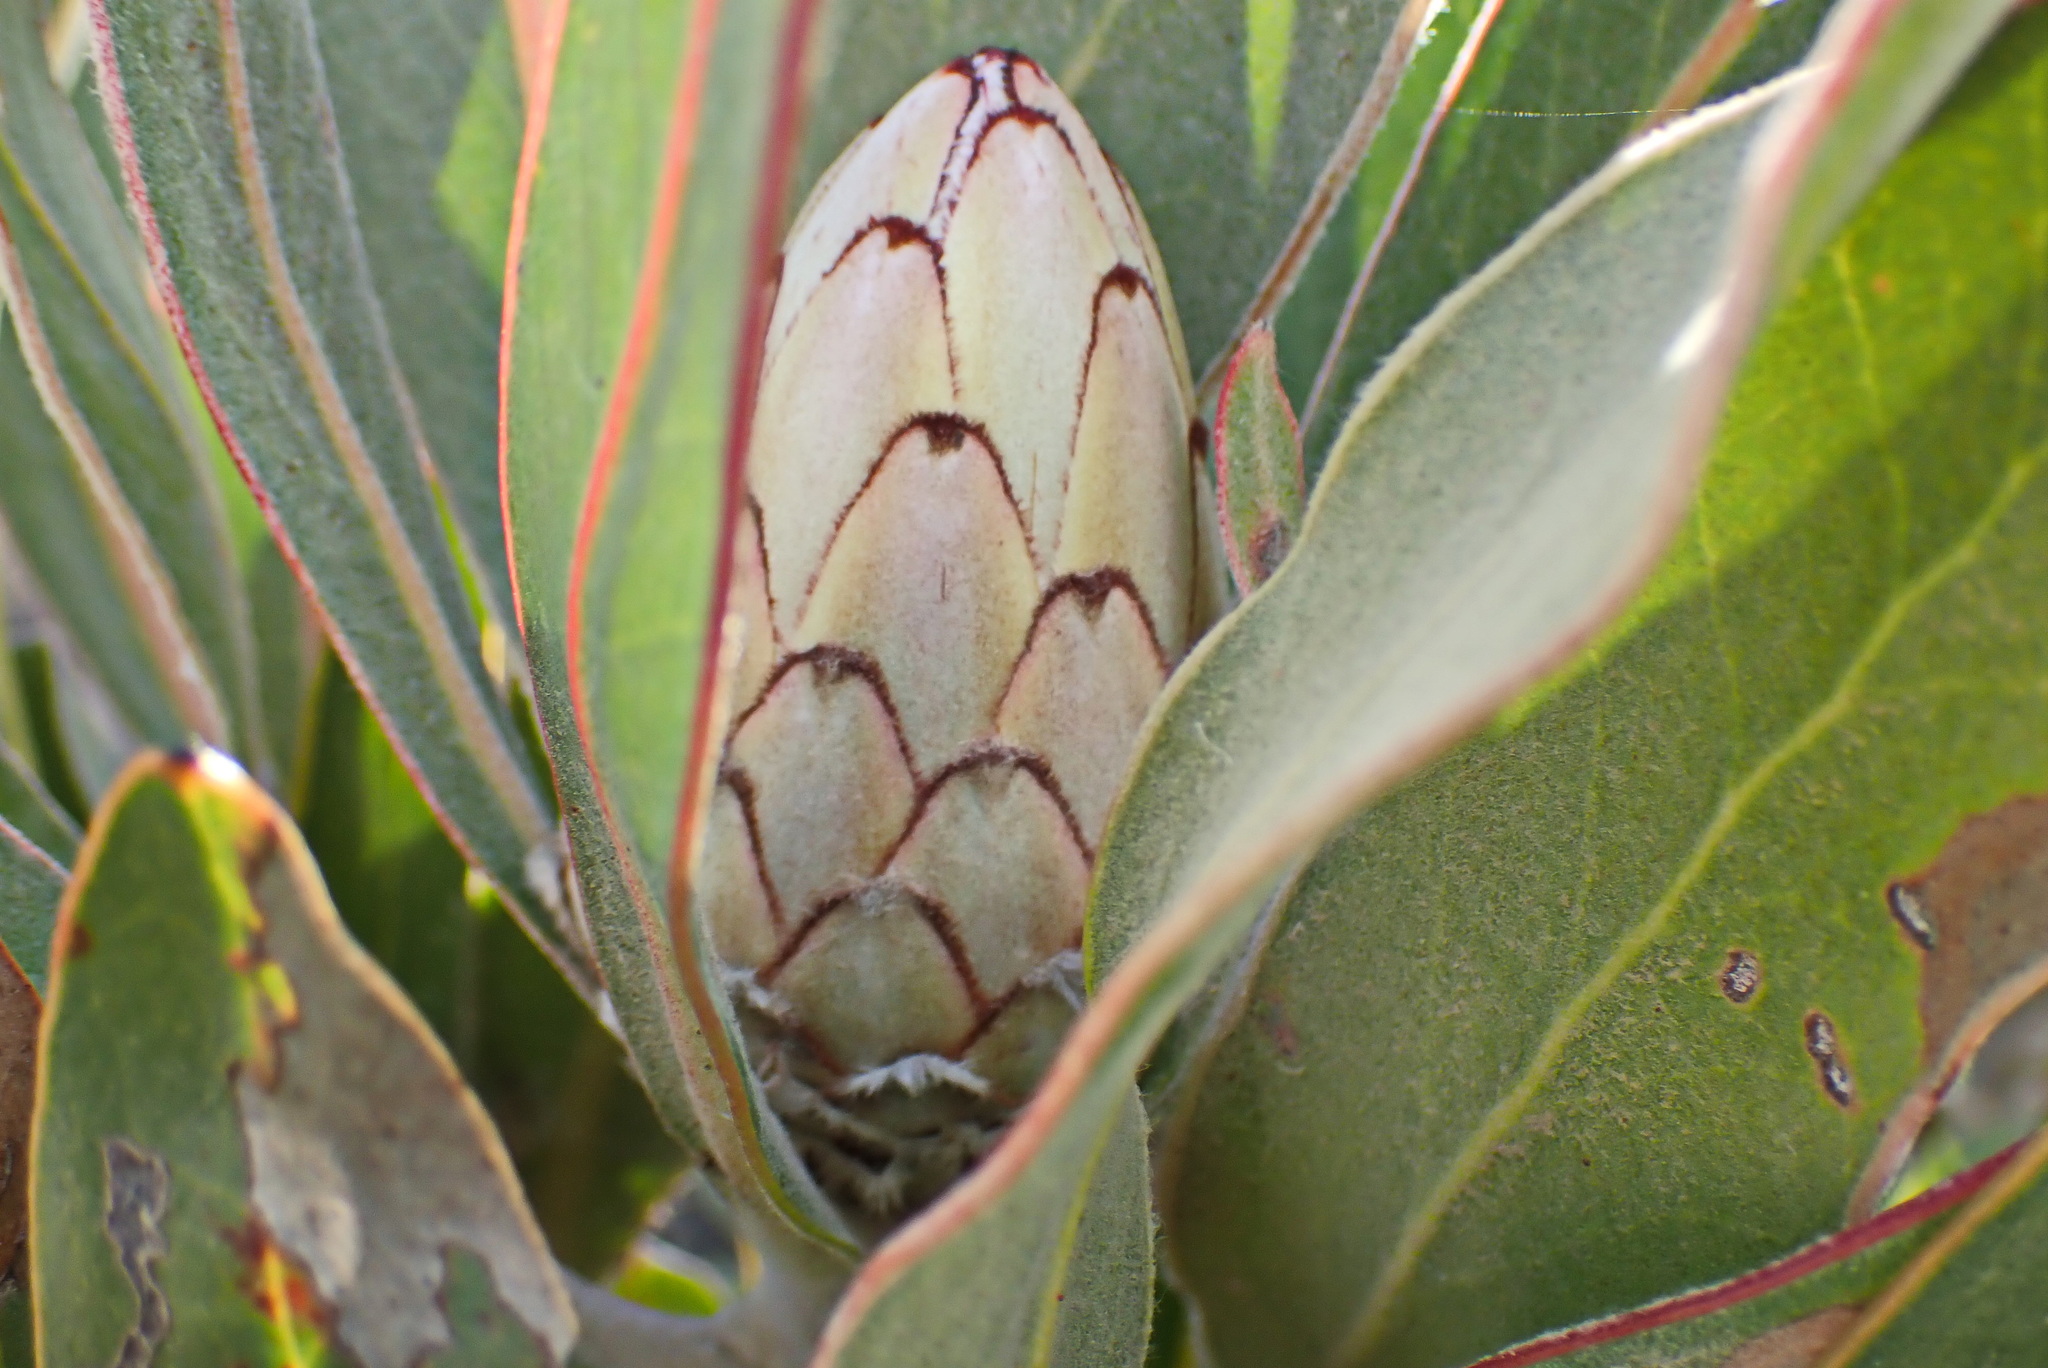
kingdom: Plantae
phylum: Tracheophyta
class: Magnoliopsida
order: Proteales
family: Proteaceae
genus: Protea
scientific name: Protea lorifolia
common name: Strap-leaved protea
